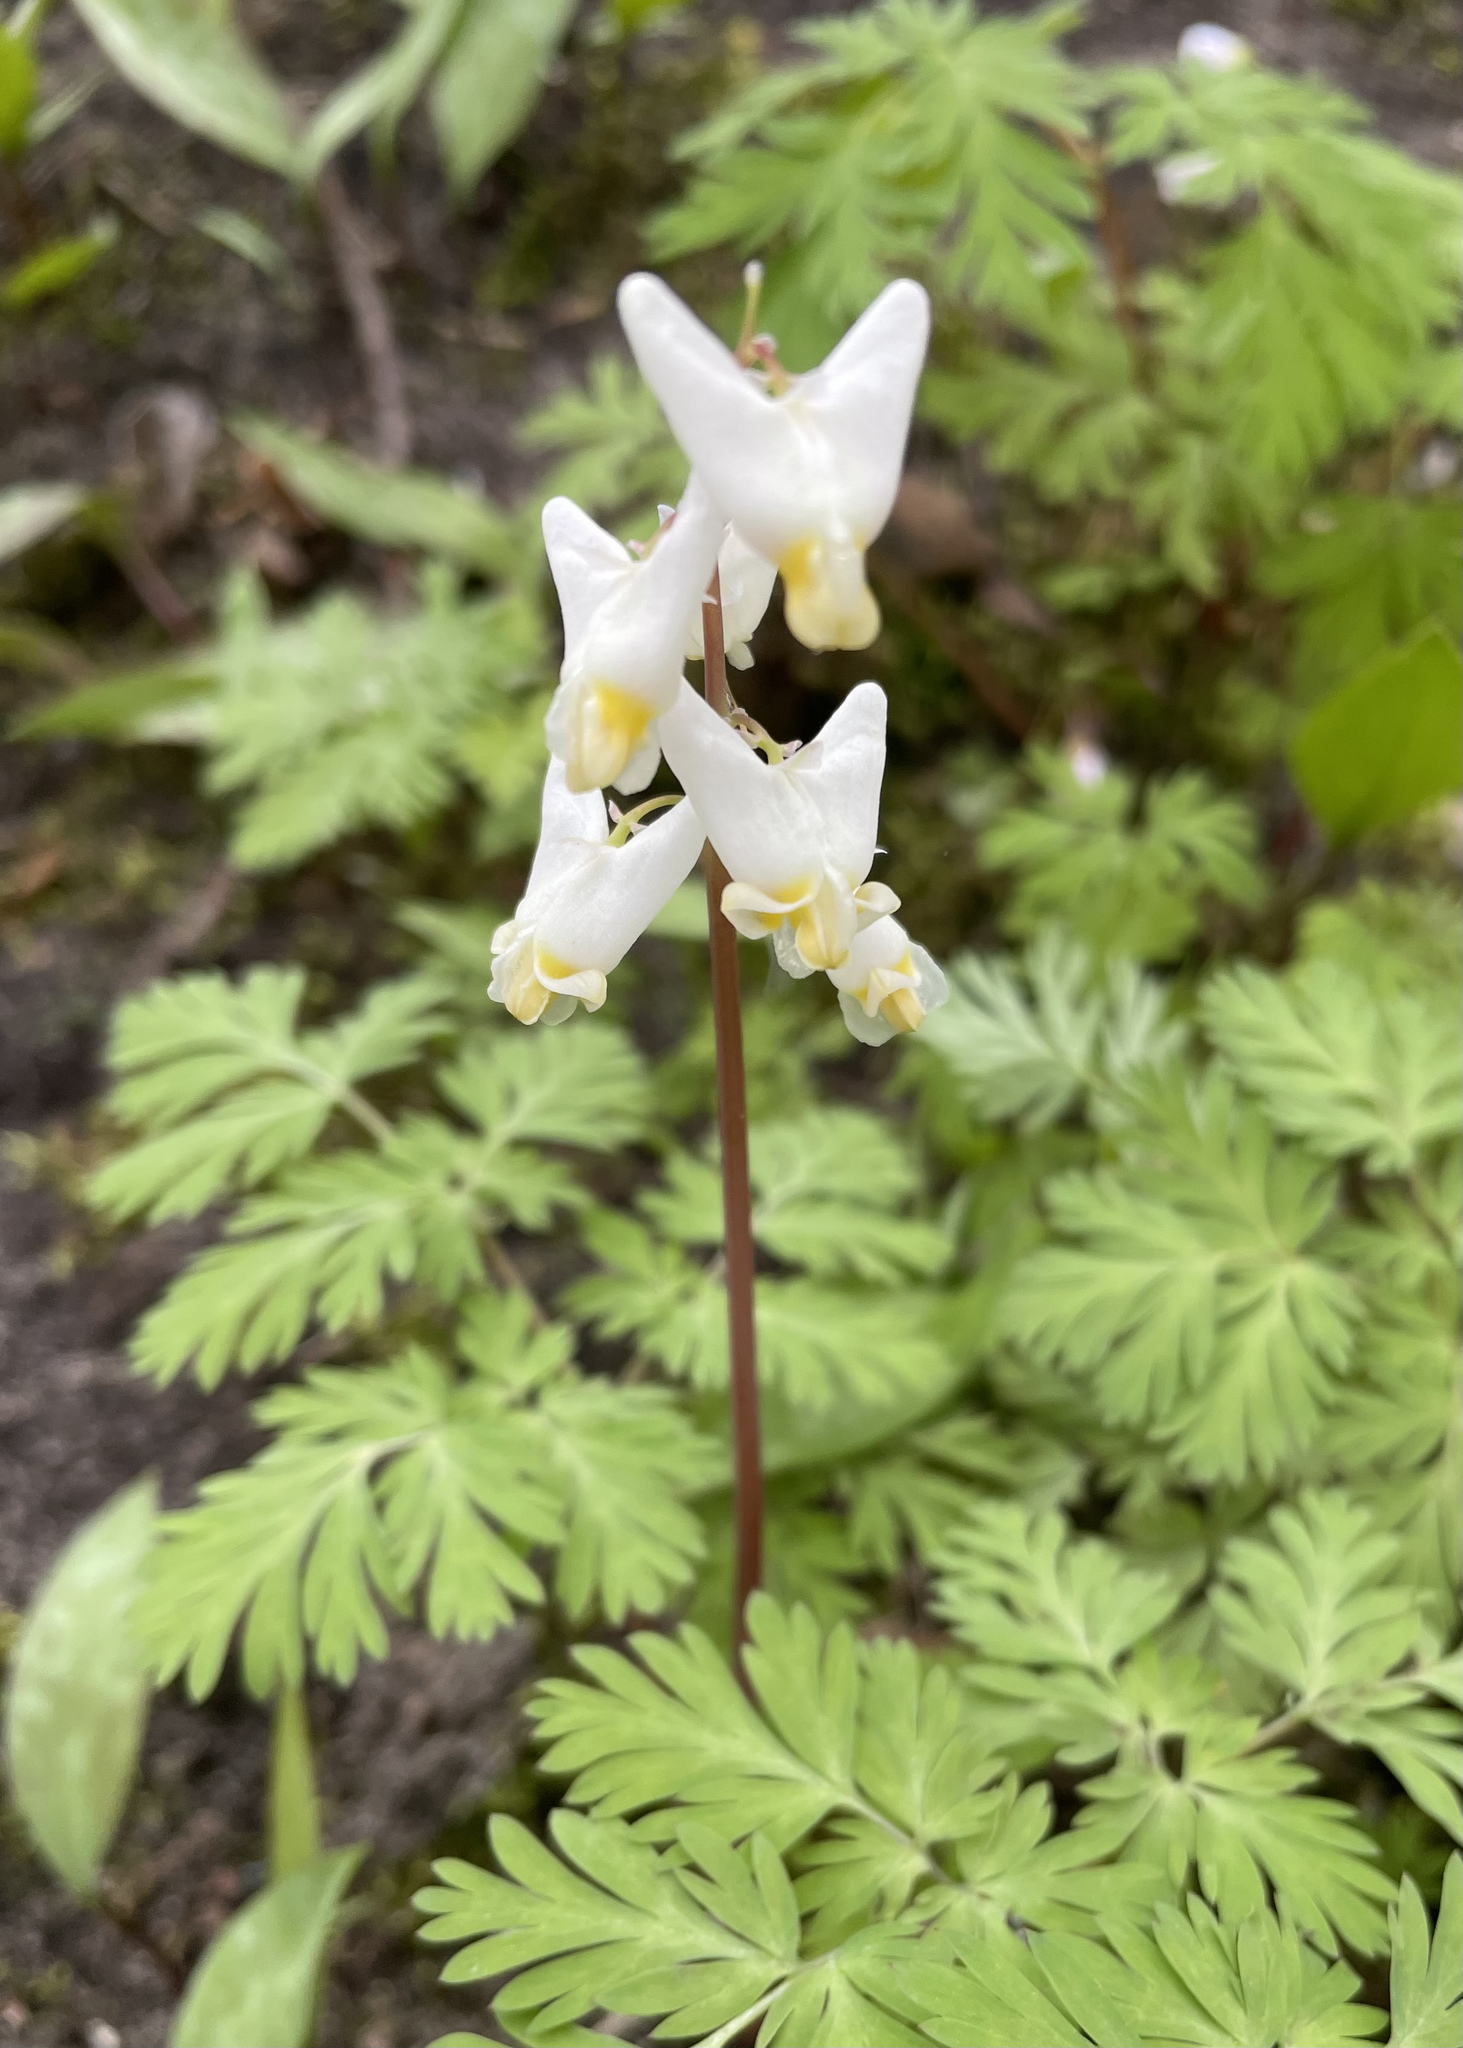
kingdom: Plantae
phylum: Tracheophyta
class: Magnoliopsida
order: Ranunculales
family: Papaveraceae
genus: Dicentra
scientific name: Dicentra cucullaria
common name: Dutchman's breeches
